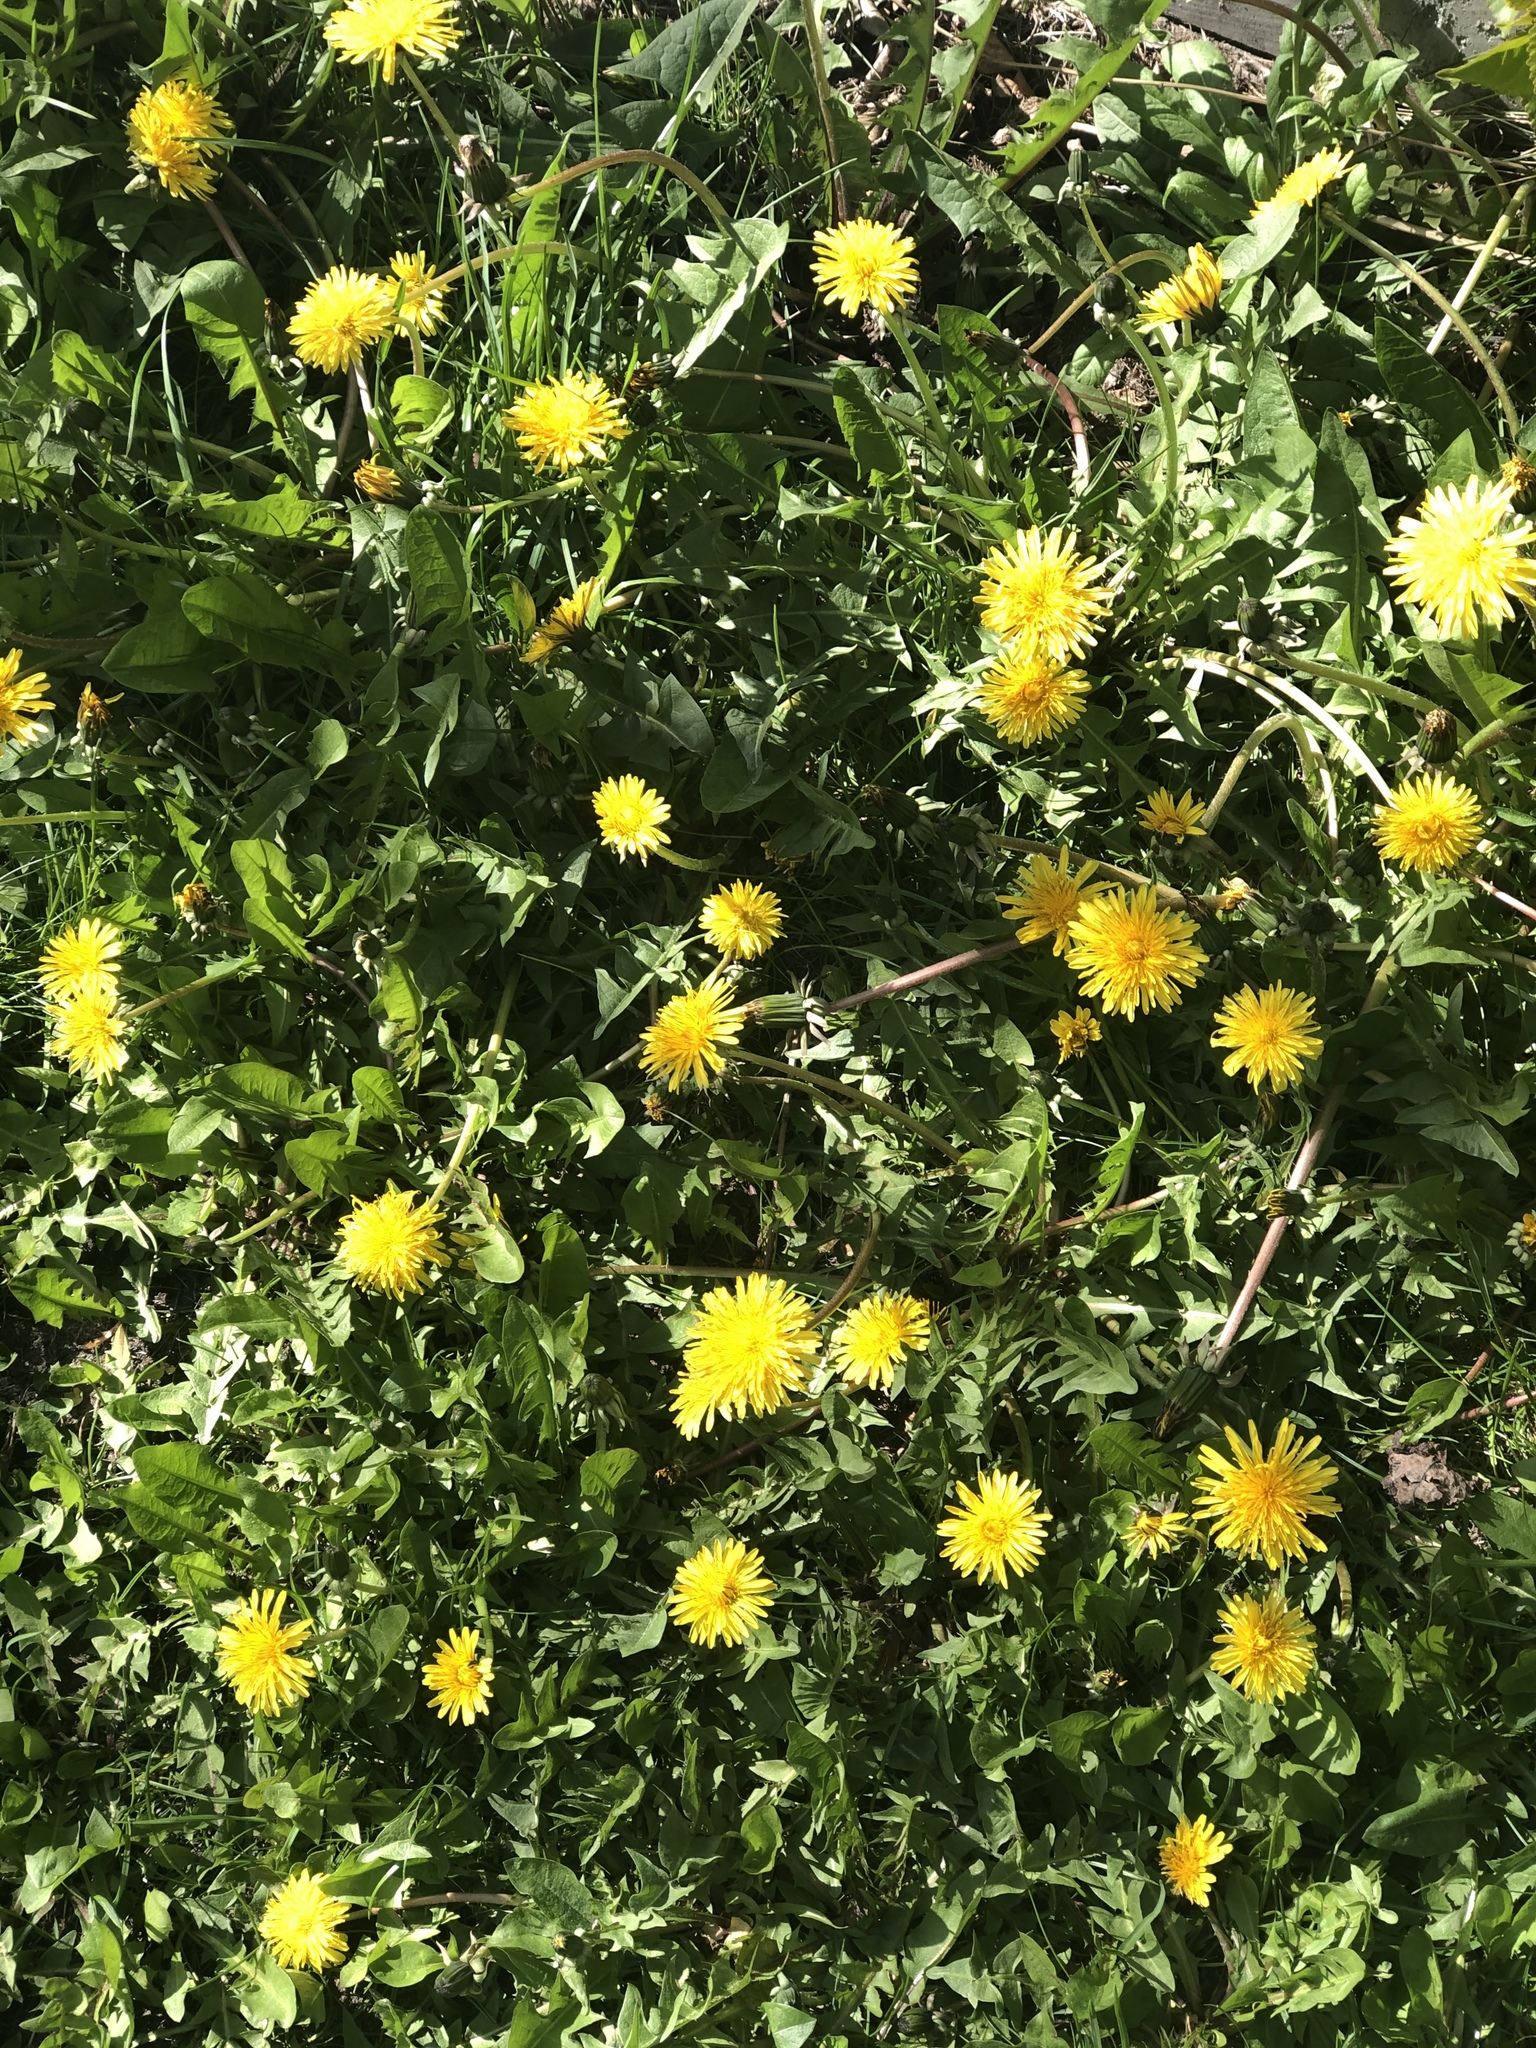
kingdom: Plantae
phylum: Tracheophyta
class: Magnoliopsida
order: Asterales
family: Asteraceae
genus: Taraxacum
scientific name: Taraxacum officinale
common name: Common dandelion
